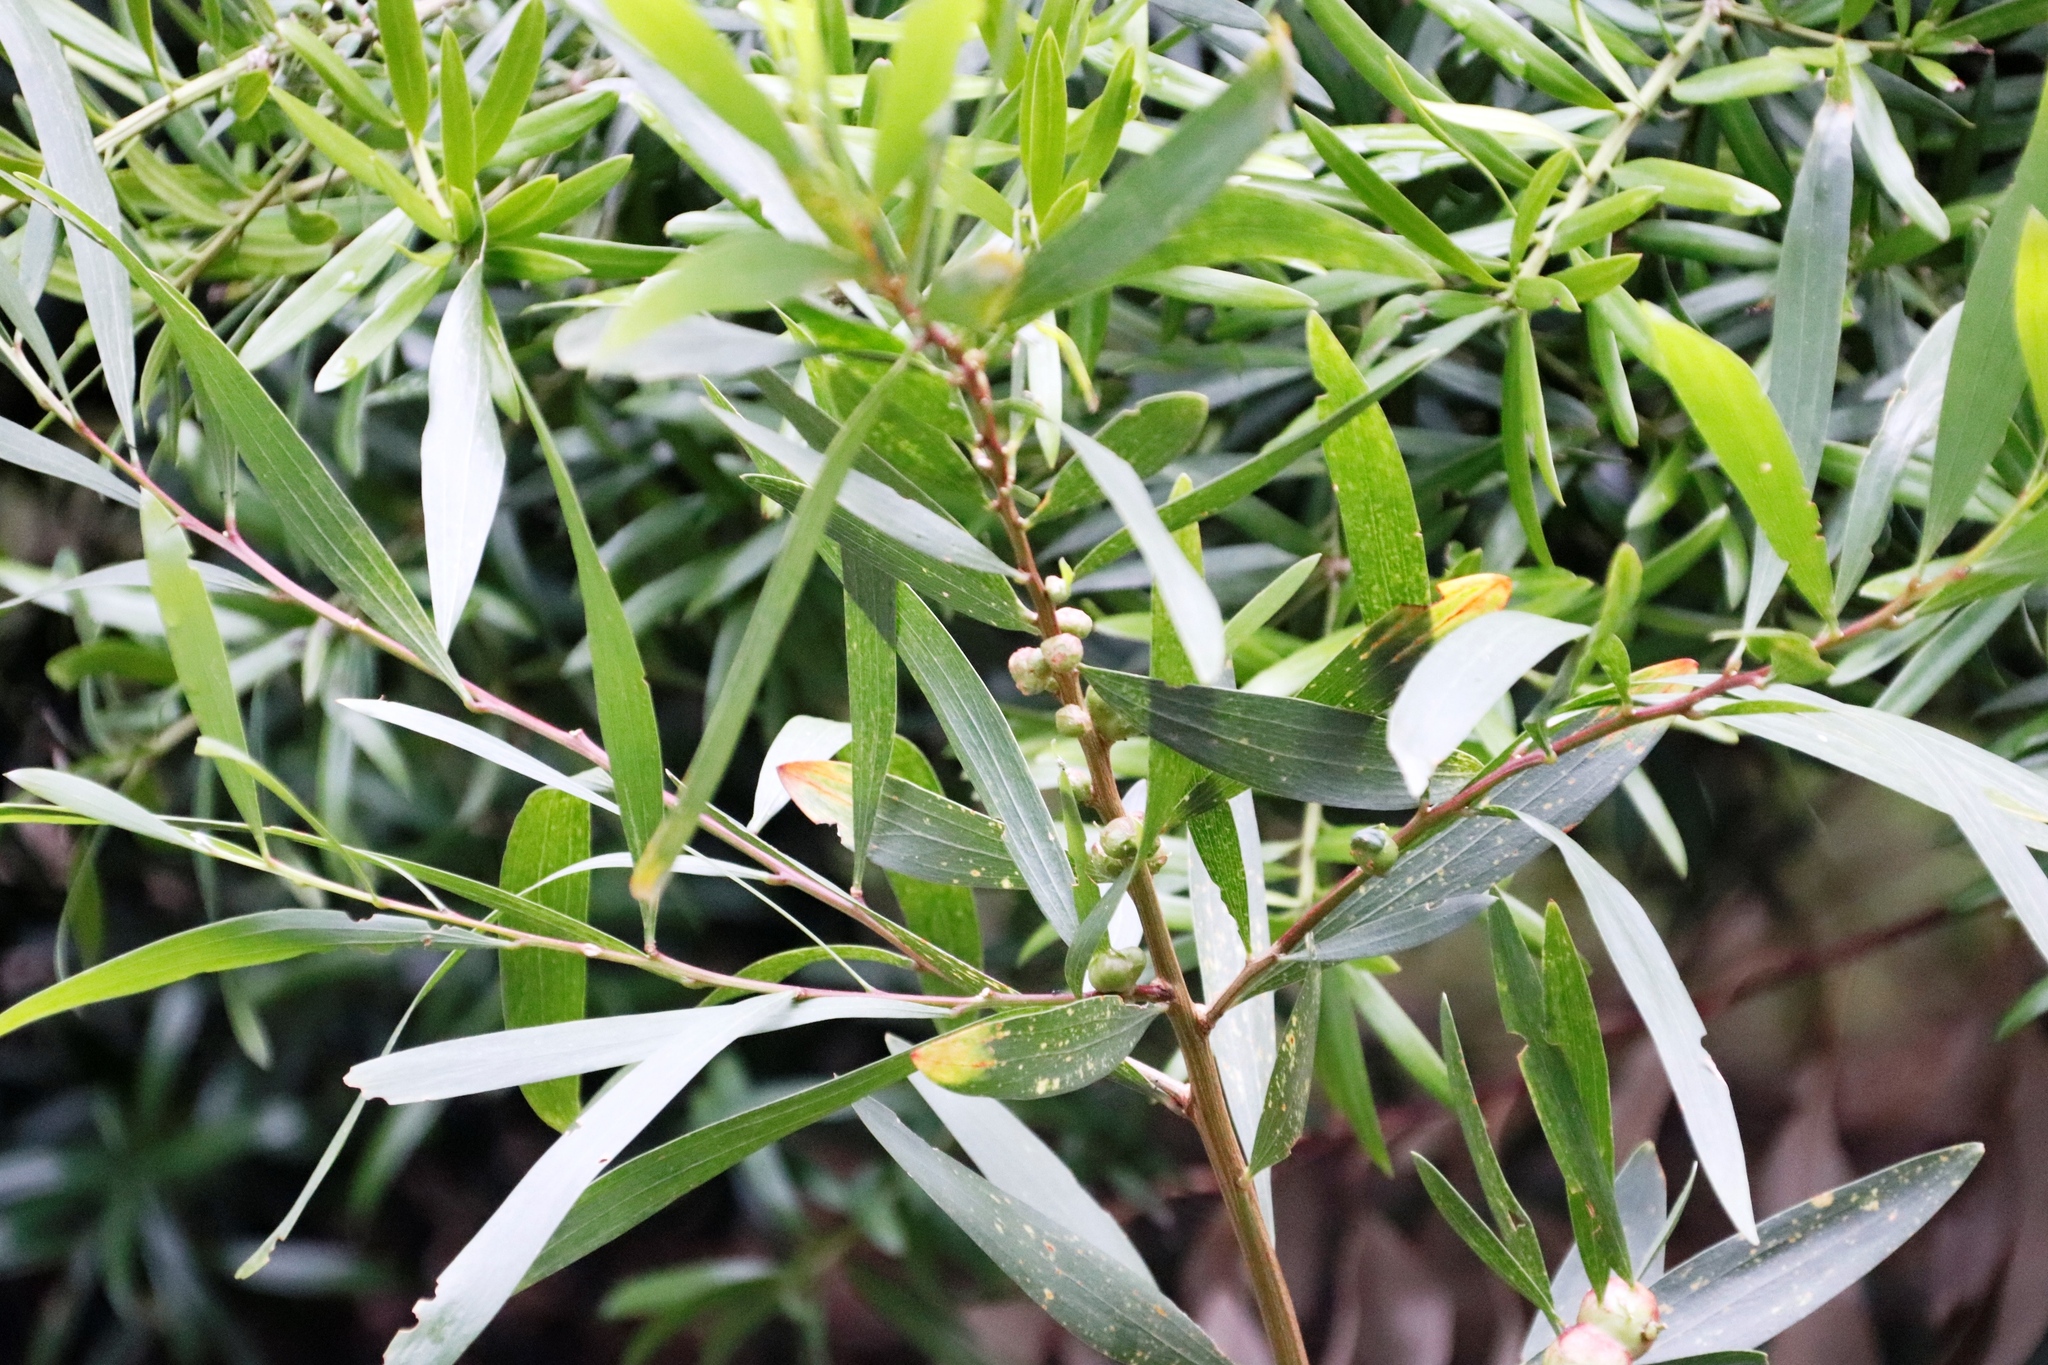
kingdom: Plantae
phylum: Tracheophyta
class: Magnoliopsida
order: Fabales
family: Fabaceae
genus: Acacia
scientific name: Acacia longifolia
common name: Sydney golden wattle
